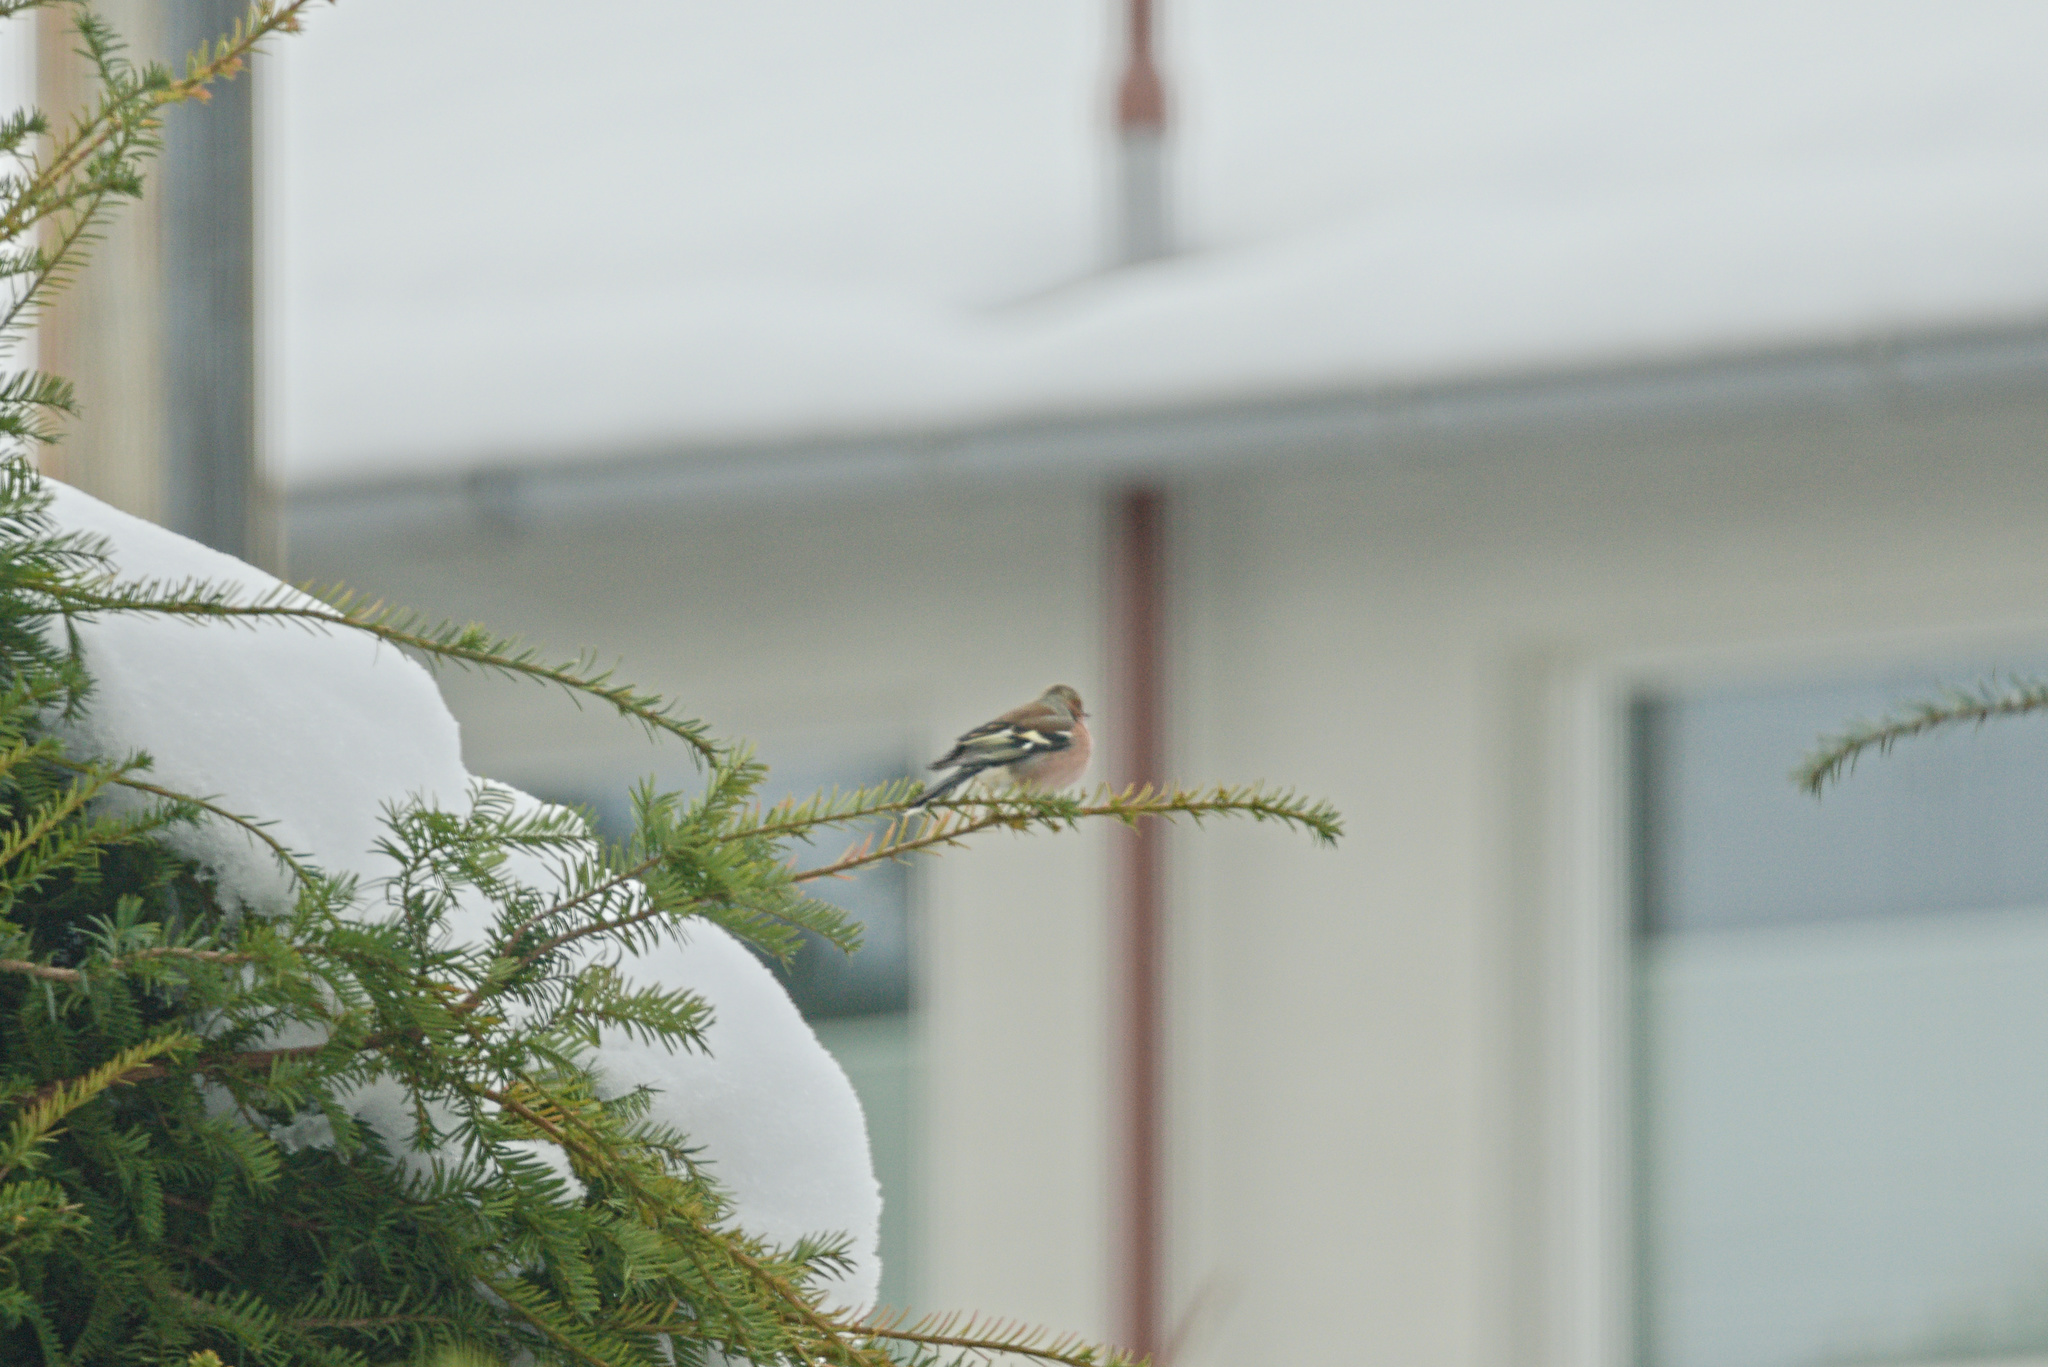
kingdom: Animalia
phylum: Chordata
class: Aves
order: Passeriformes
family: Fringillidae
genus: Fringilla
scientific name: Fringilla coelebs
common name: Common chaffinch
